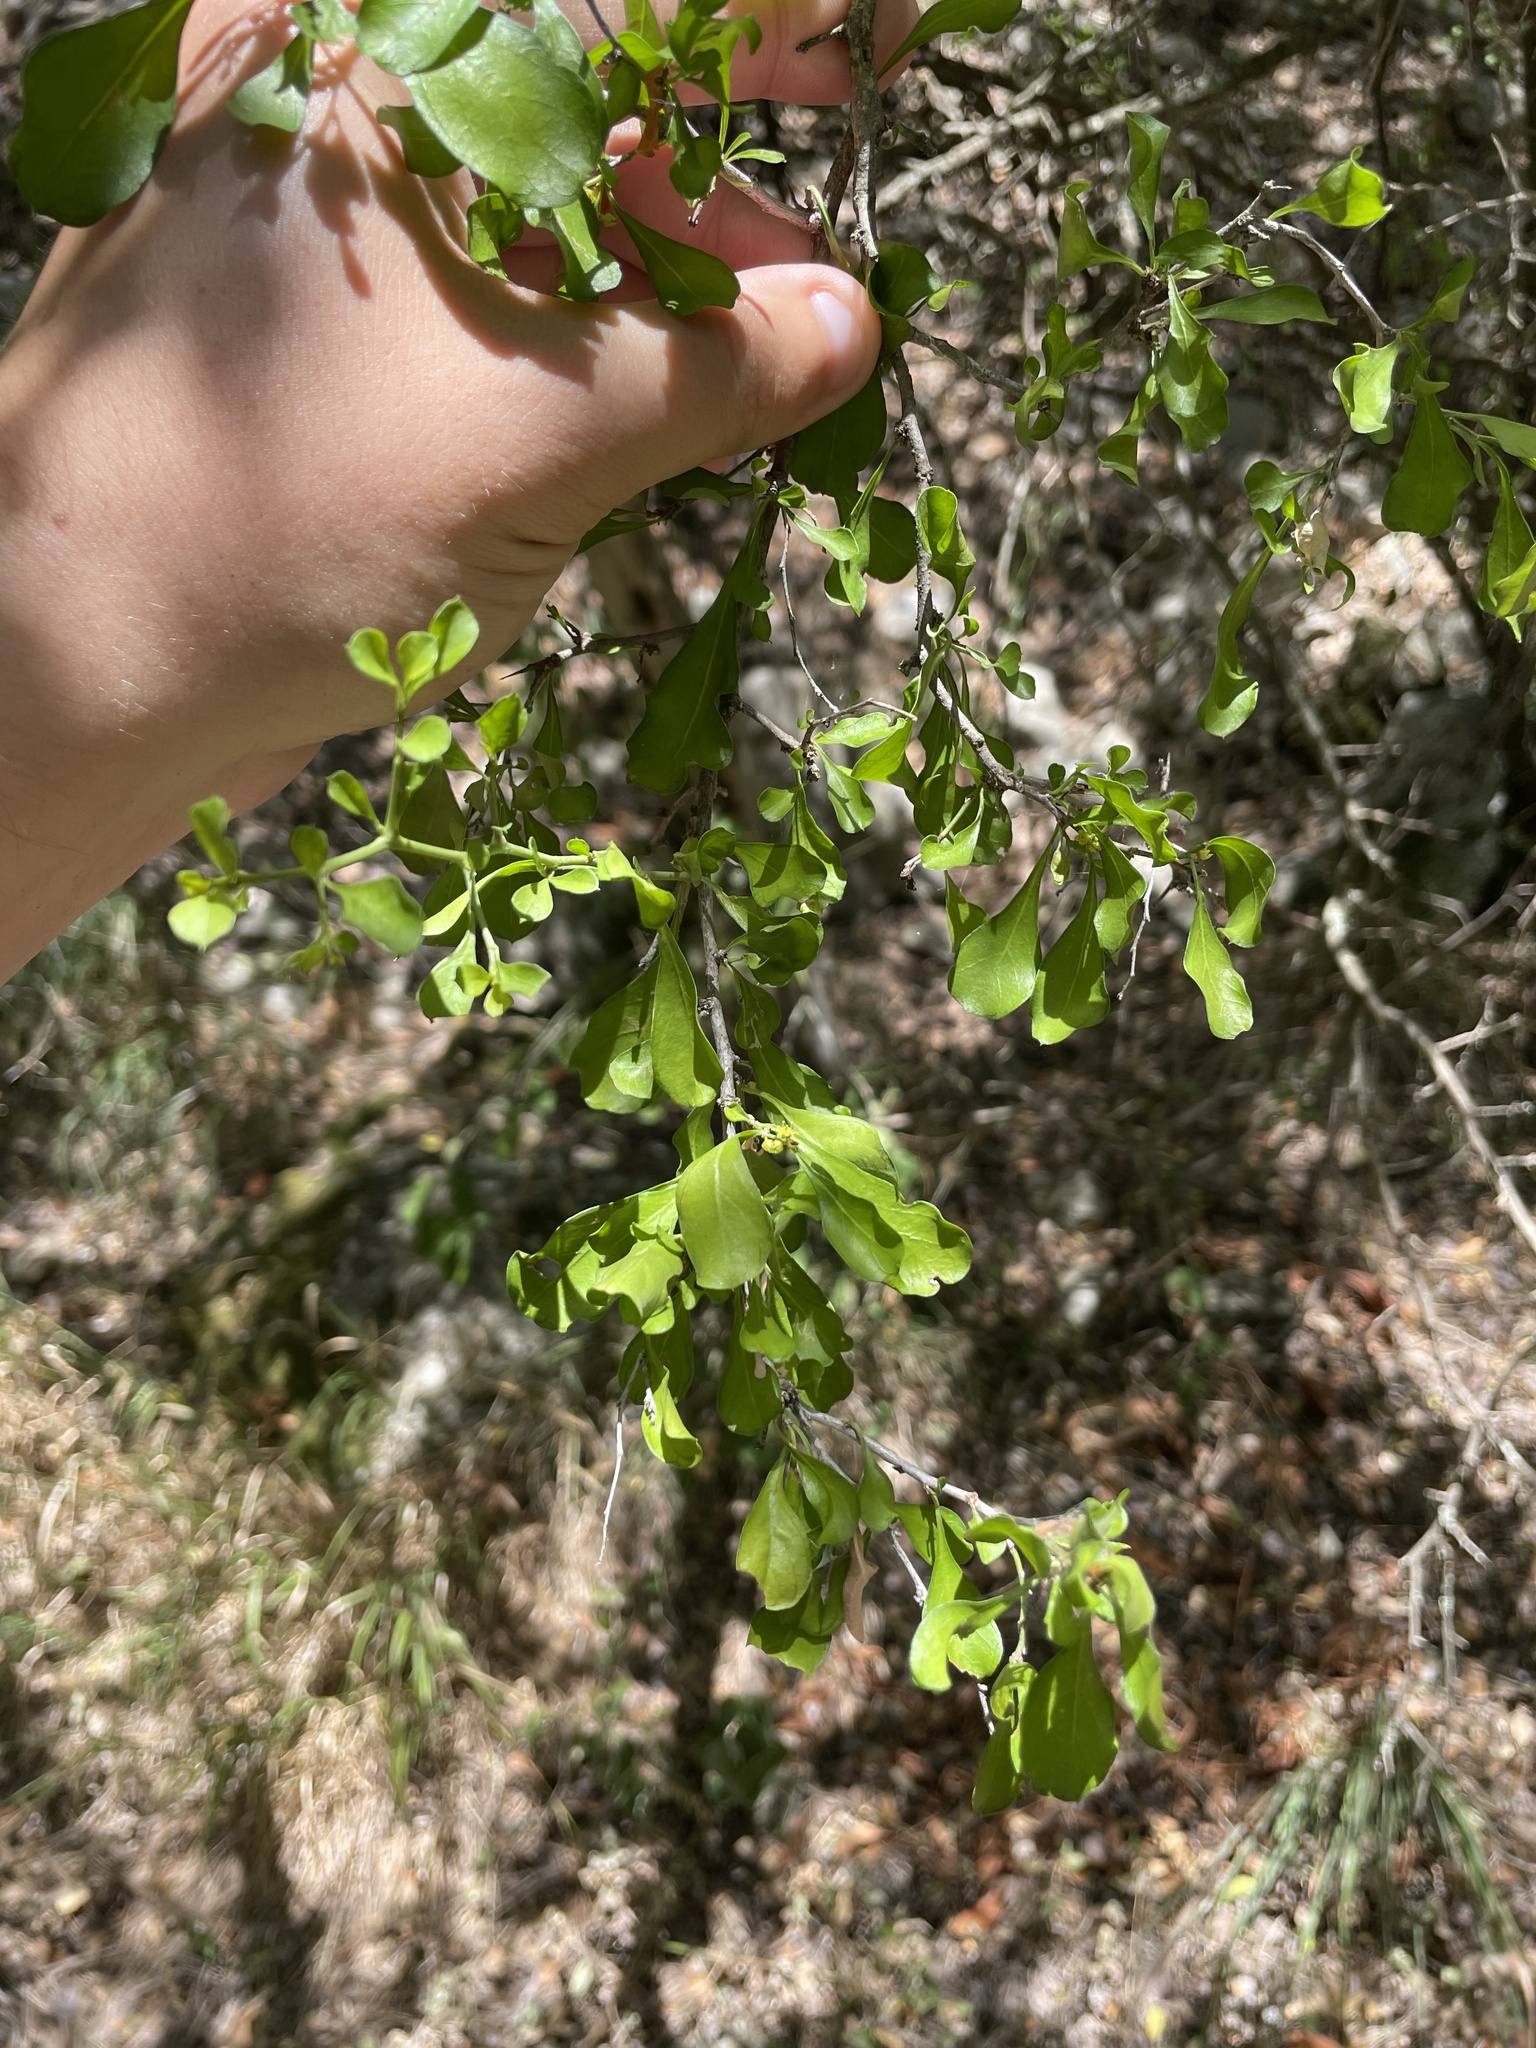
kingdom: Plantae
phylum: Tracheophyta
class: Magnoliopsida
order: Rosales
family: Rhamnaceae
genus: Condalia
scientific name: Condalia hookeri
